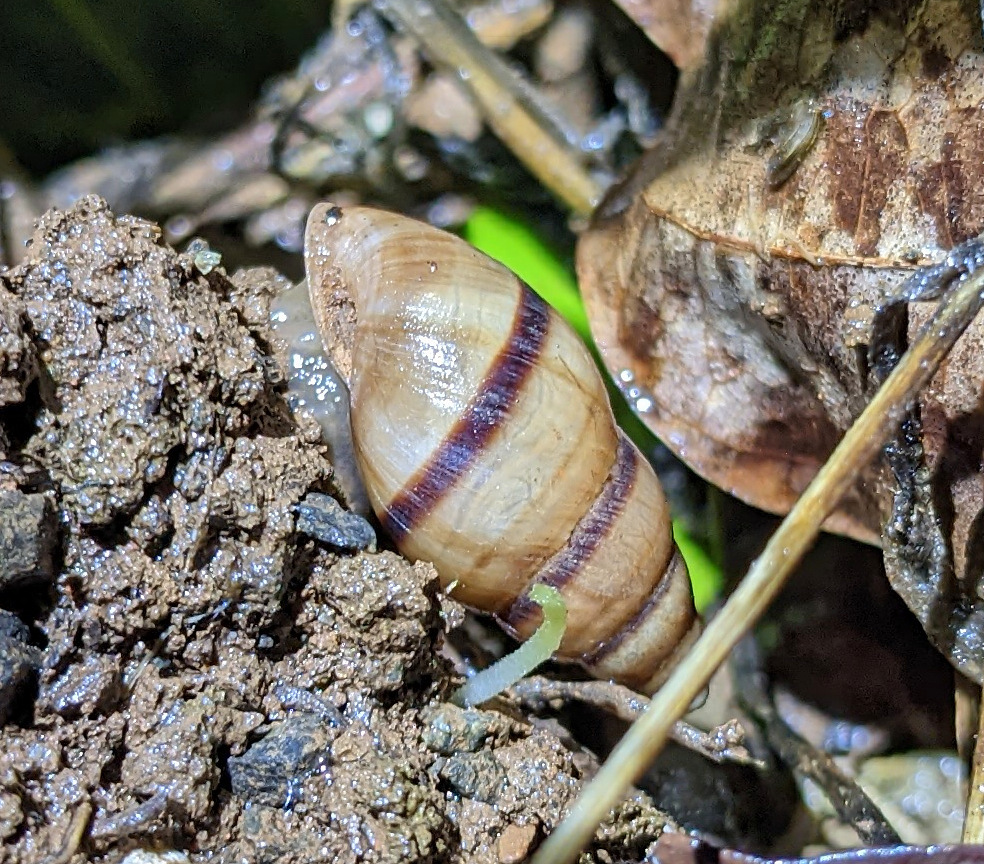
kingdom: Animalia
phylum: Mollusca
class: Gastropoda
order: Stylommatophora
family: Bulimulidae
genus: Bulimulus
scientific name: Bulimulus guadalupensis
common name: West indian bulimulus
